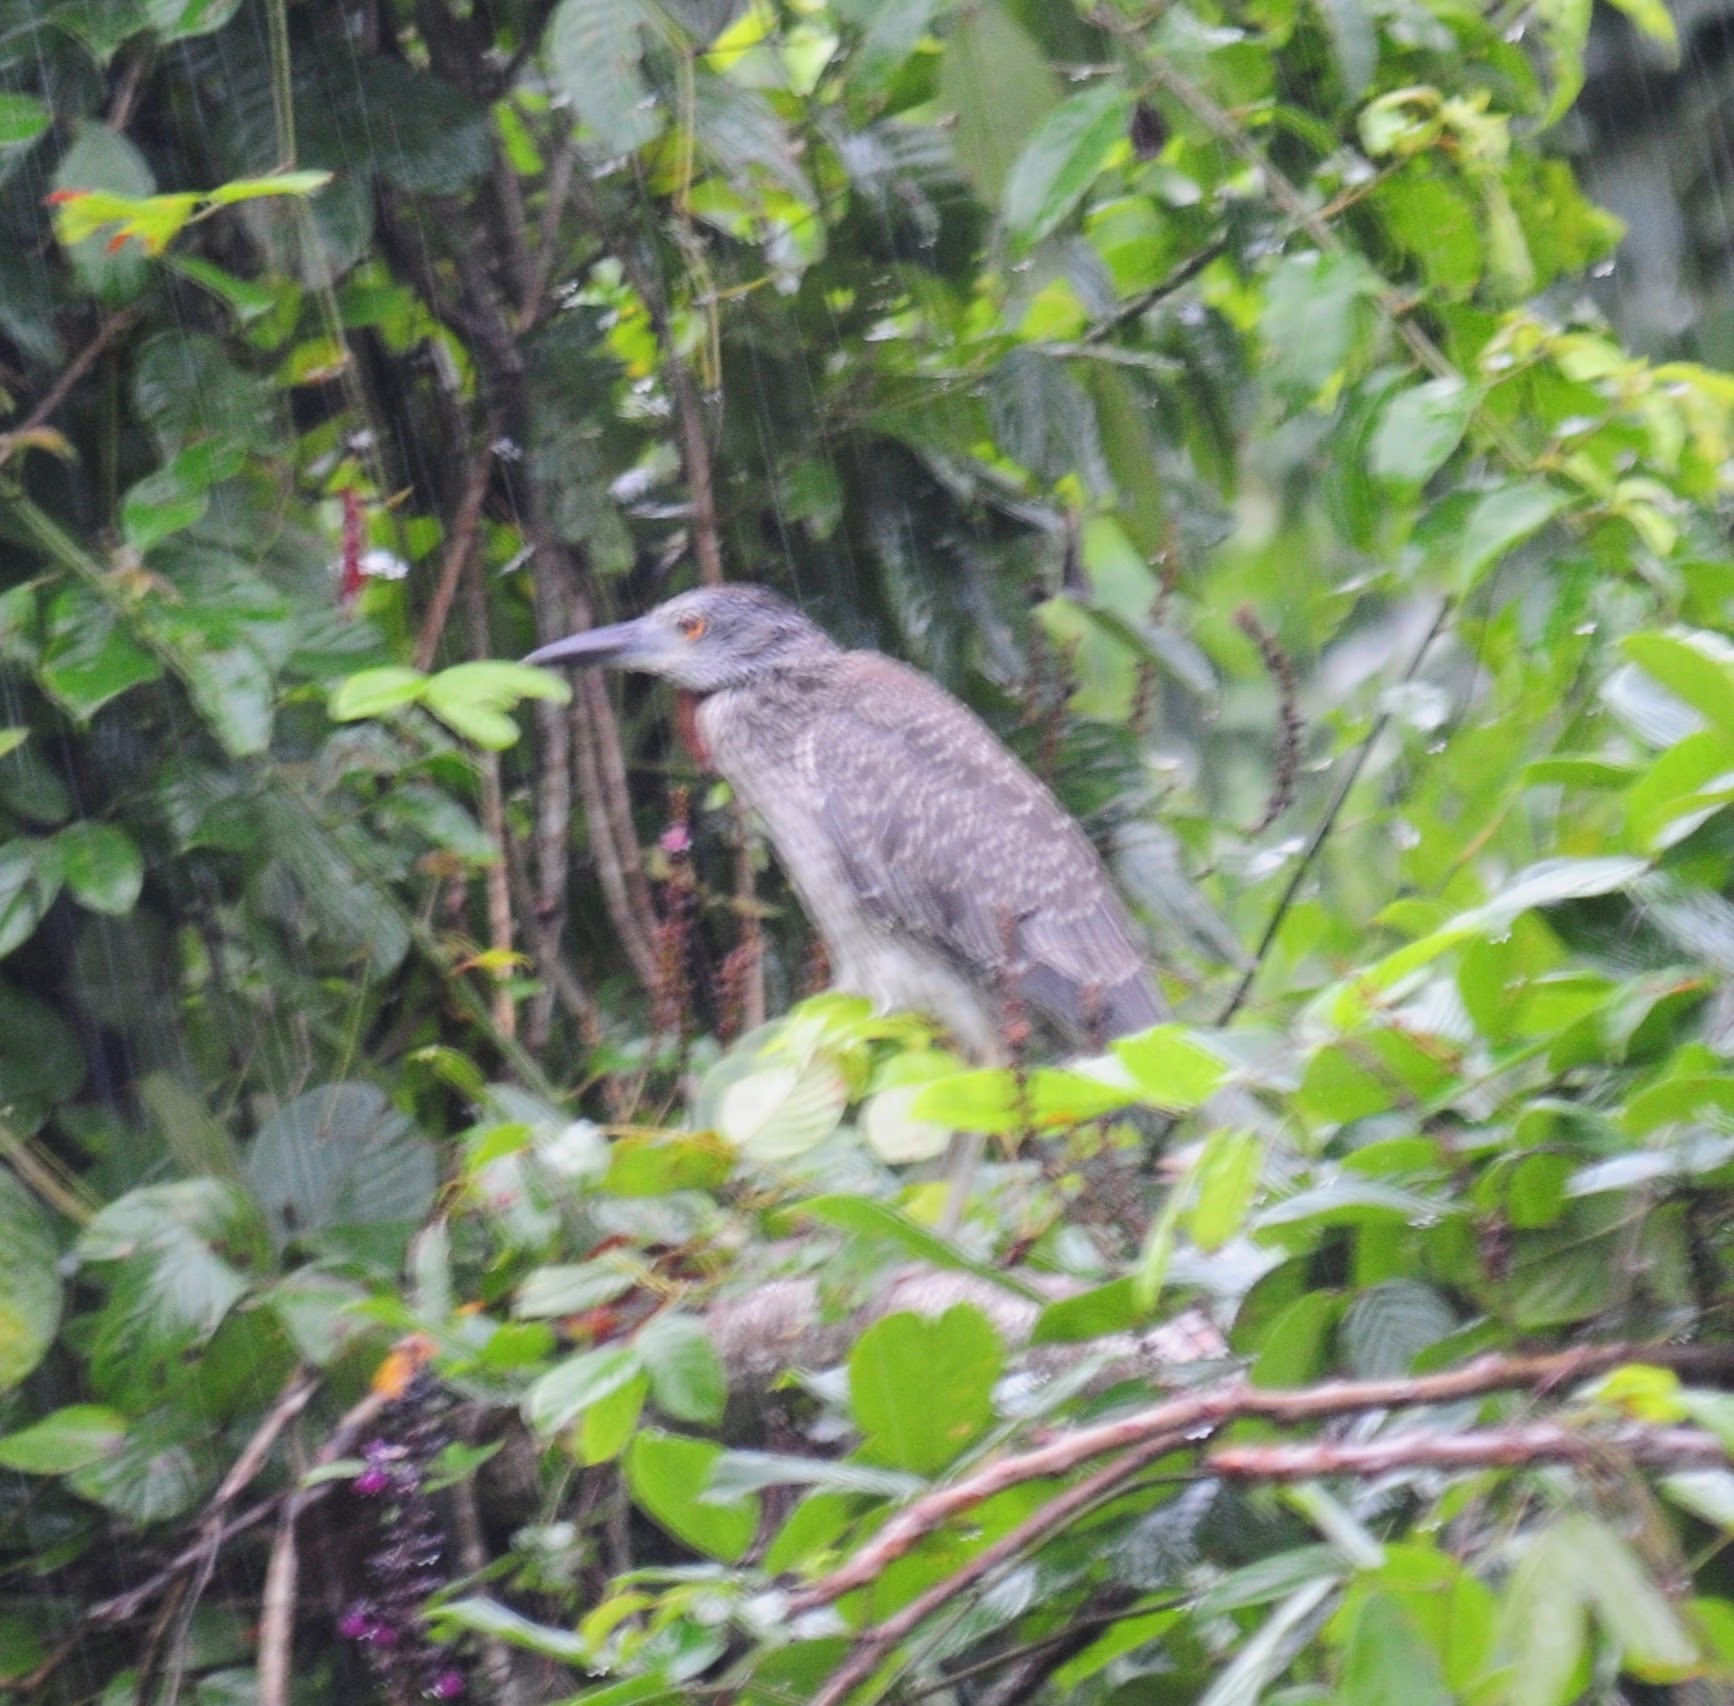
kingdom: Animalia
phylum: Chordata
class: Aves
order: Pelecaniformes
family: Ardeidae
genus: Nyctanassa
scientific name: Nyctanassa violacea
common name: Yellow-crowned night heron
